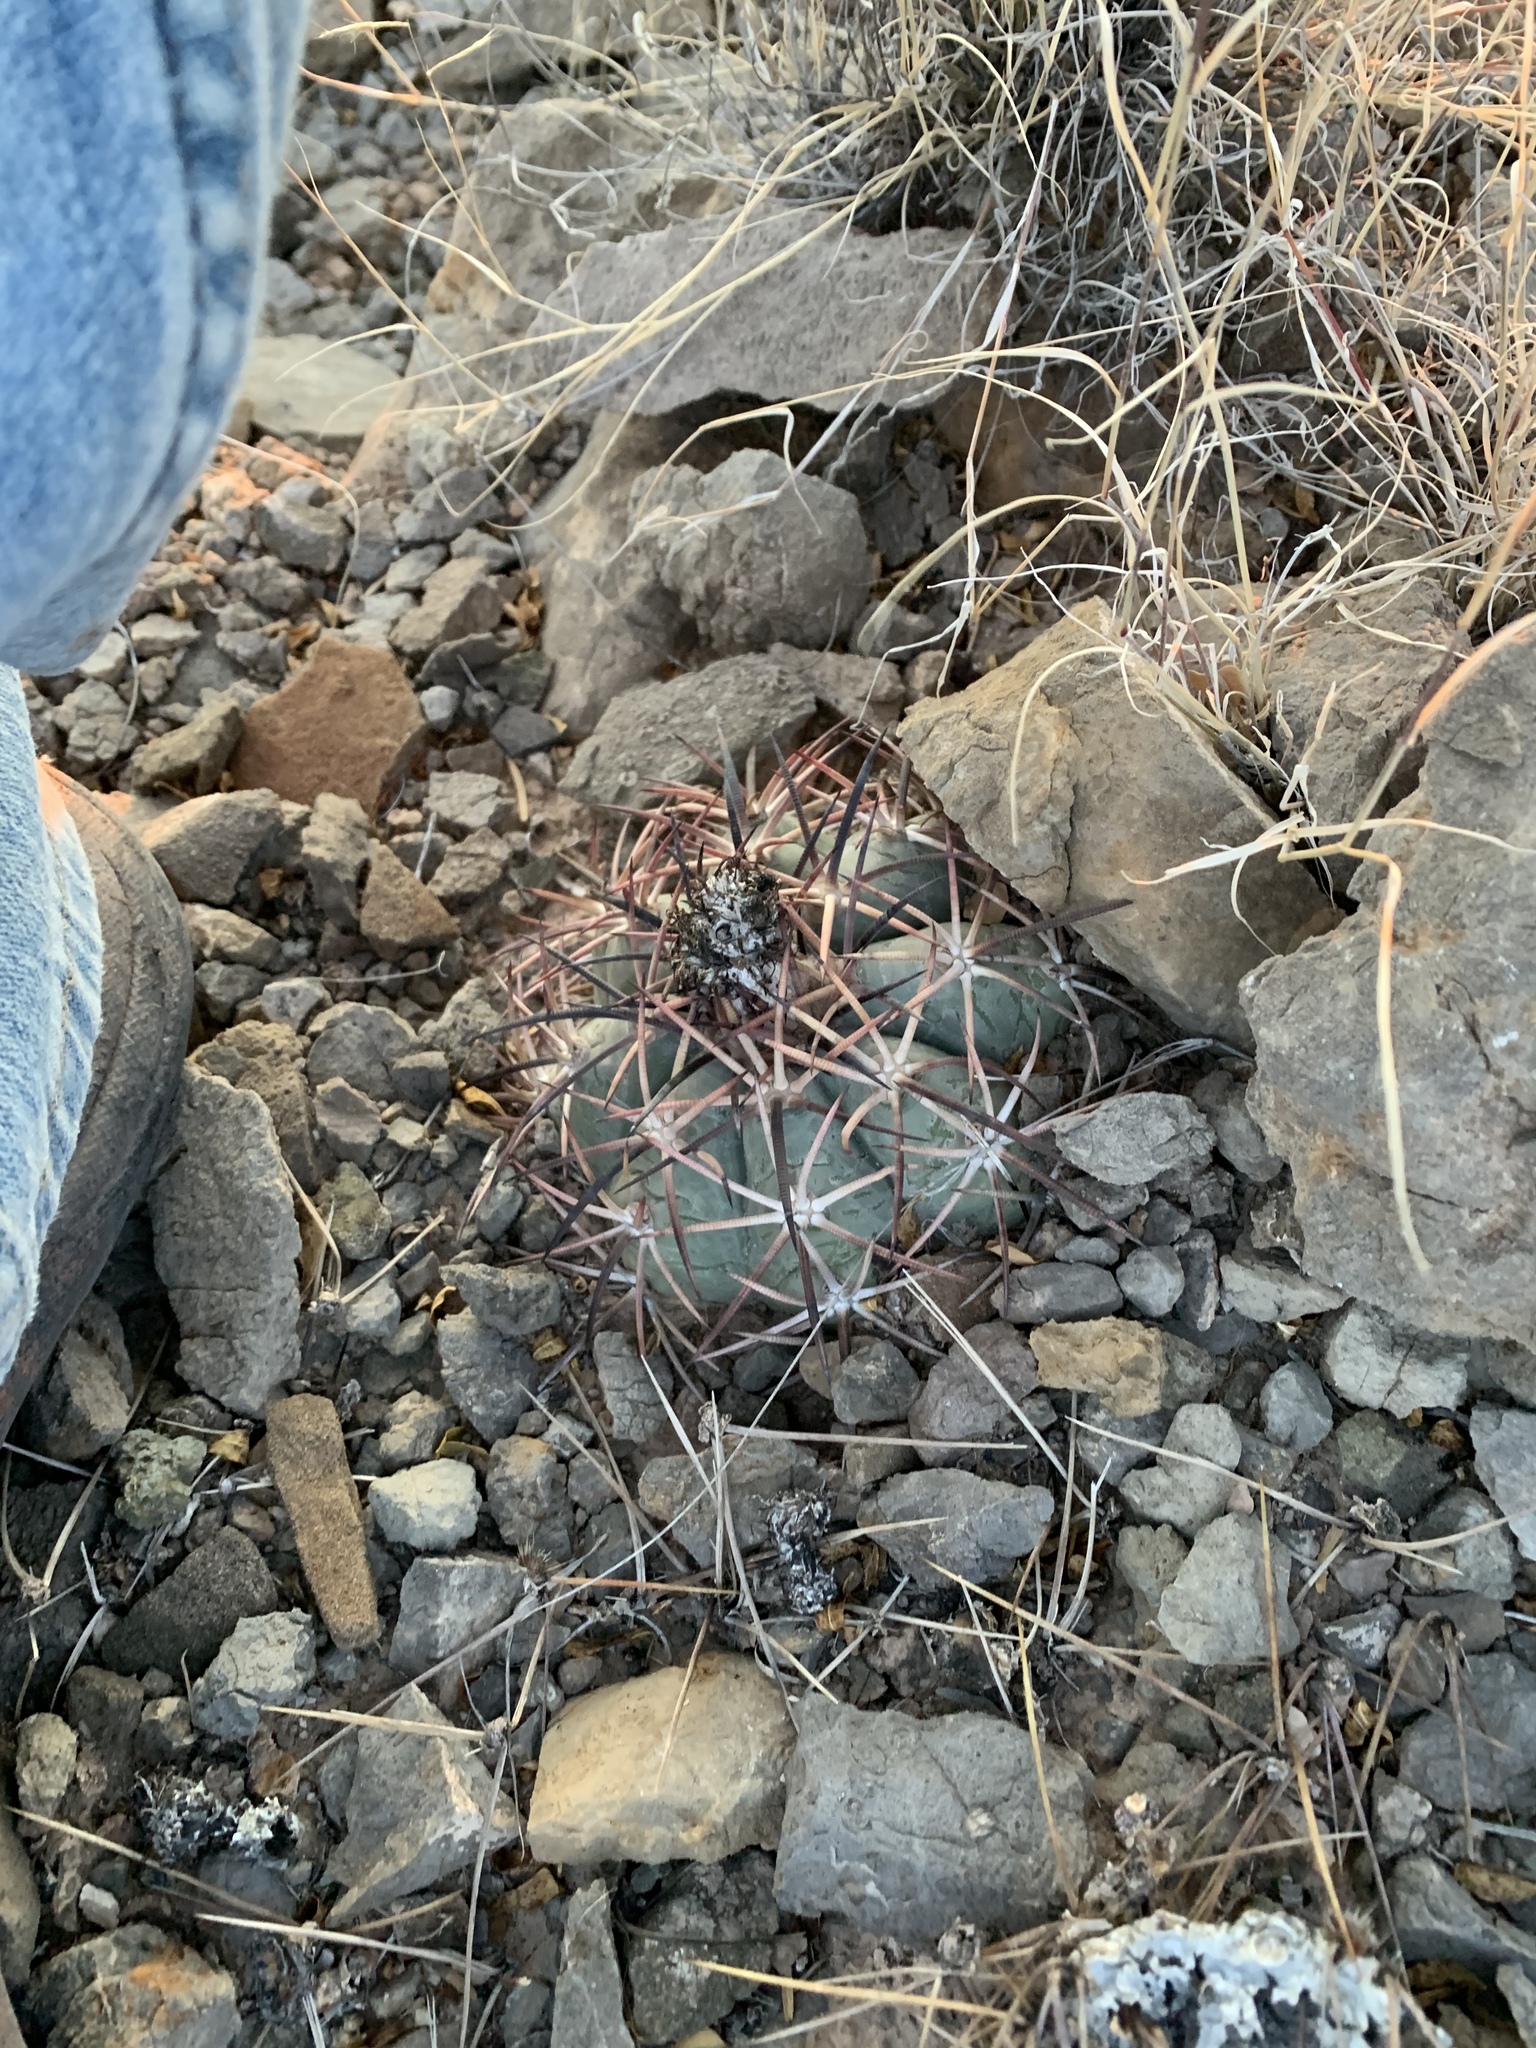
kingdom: Plantae
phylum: Tracheophyta
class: Magnoliopsida
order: Caryophyllales
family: Cactaceae
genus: Echinocactus
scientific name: Echinocactus horizonthalonius
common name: Devilshead
